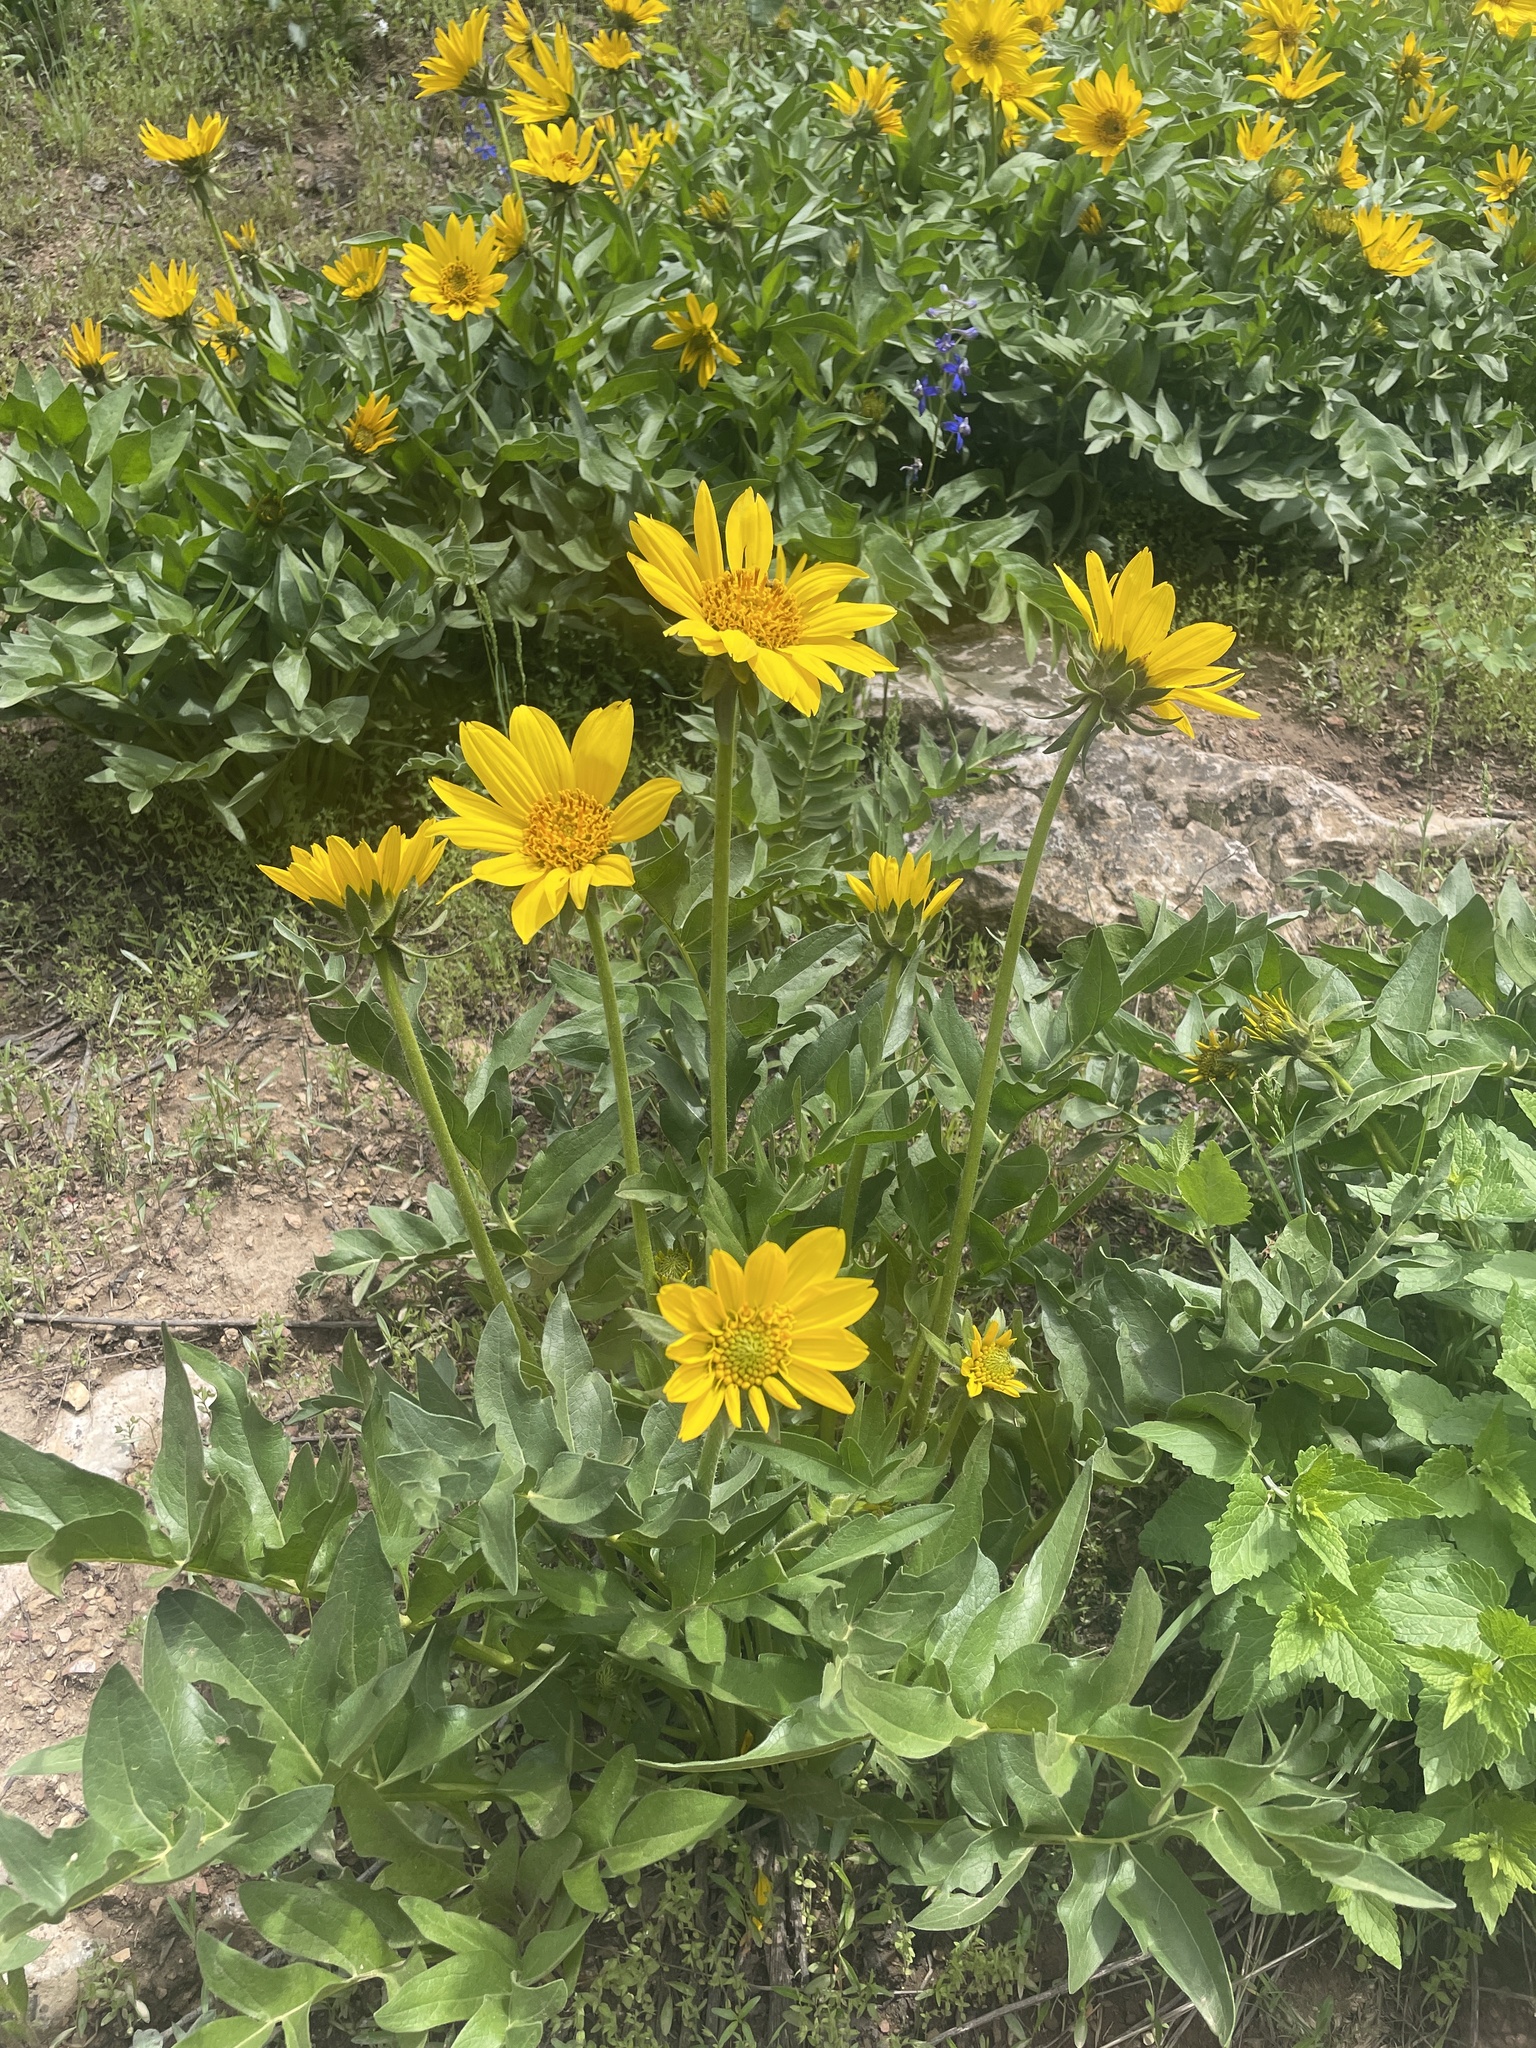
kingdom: Plantae
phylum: Tracheophyta
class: Magnoliopsida
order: Asterales
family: Asteraceae
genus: Balsamorhiza
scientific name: Balsamorhiza macrophylla
